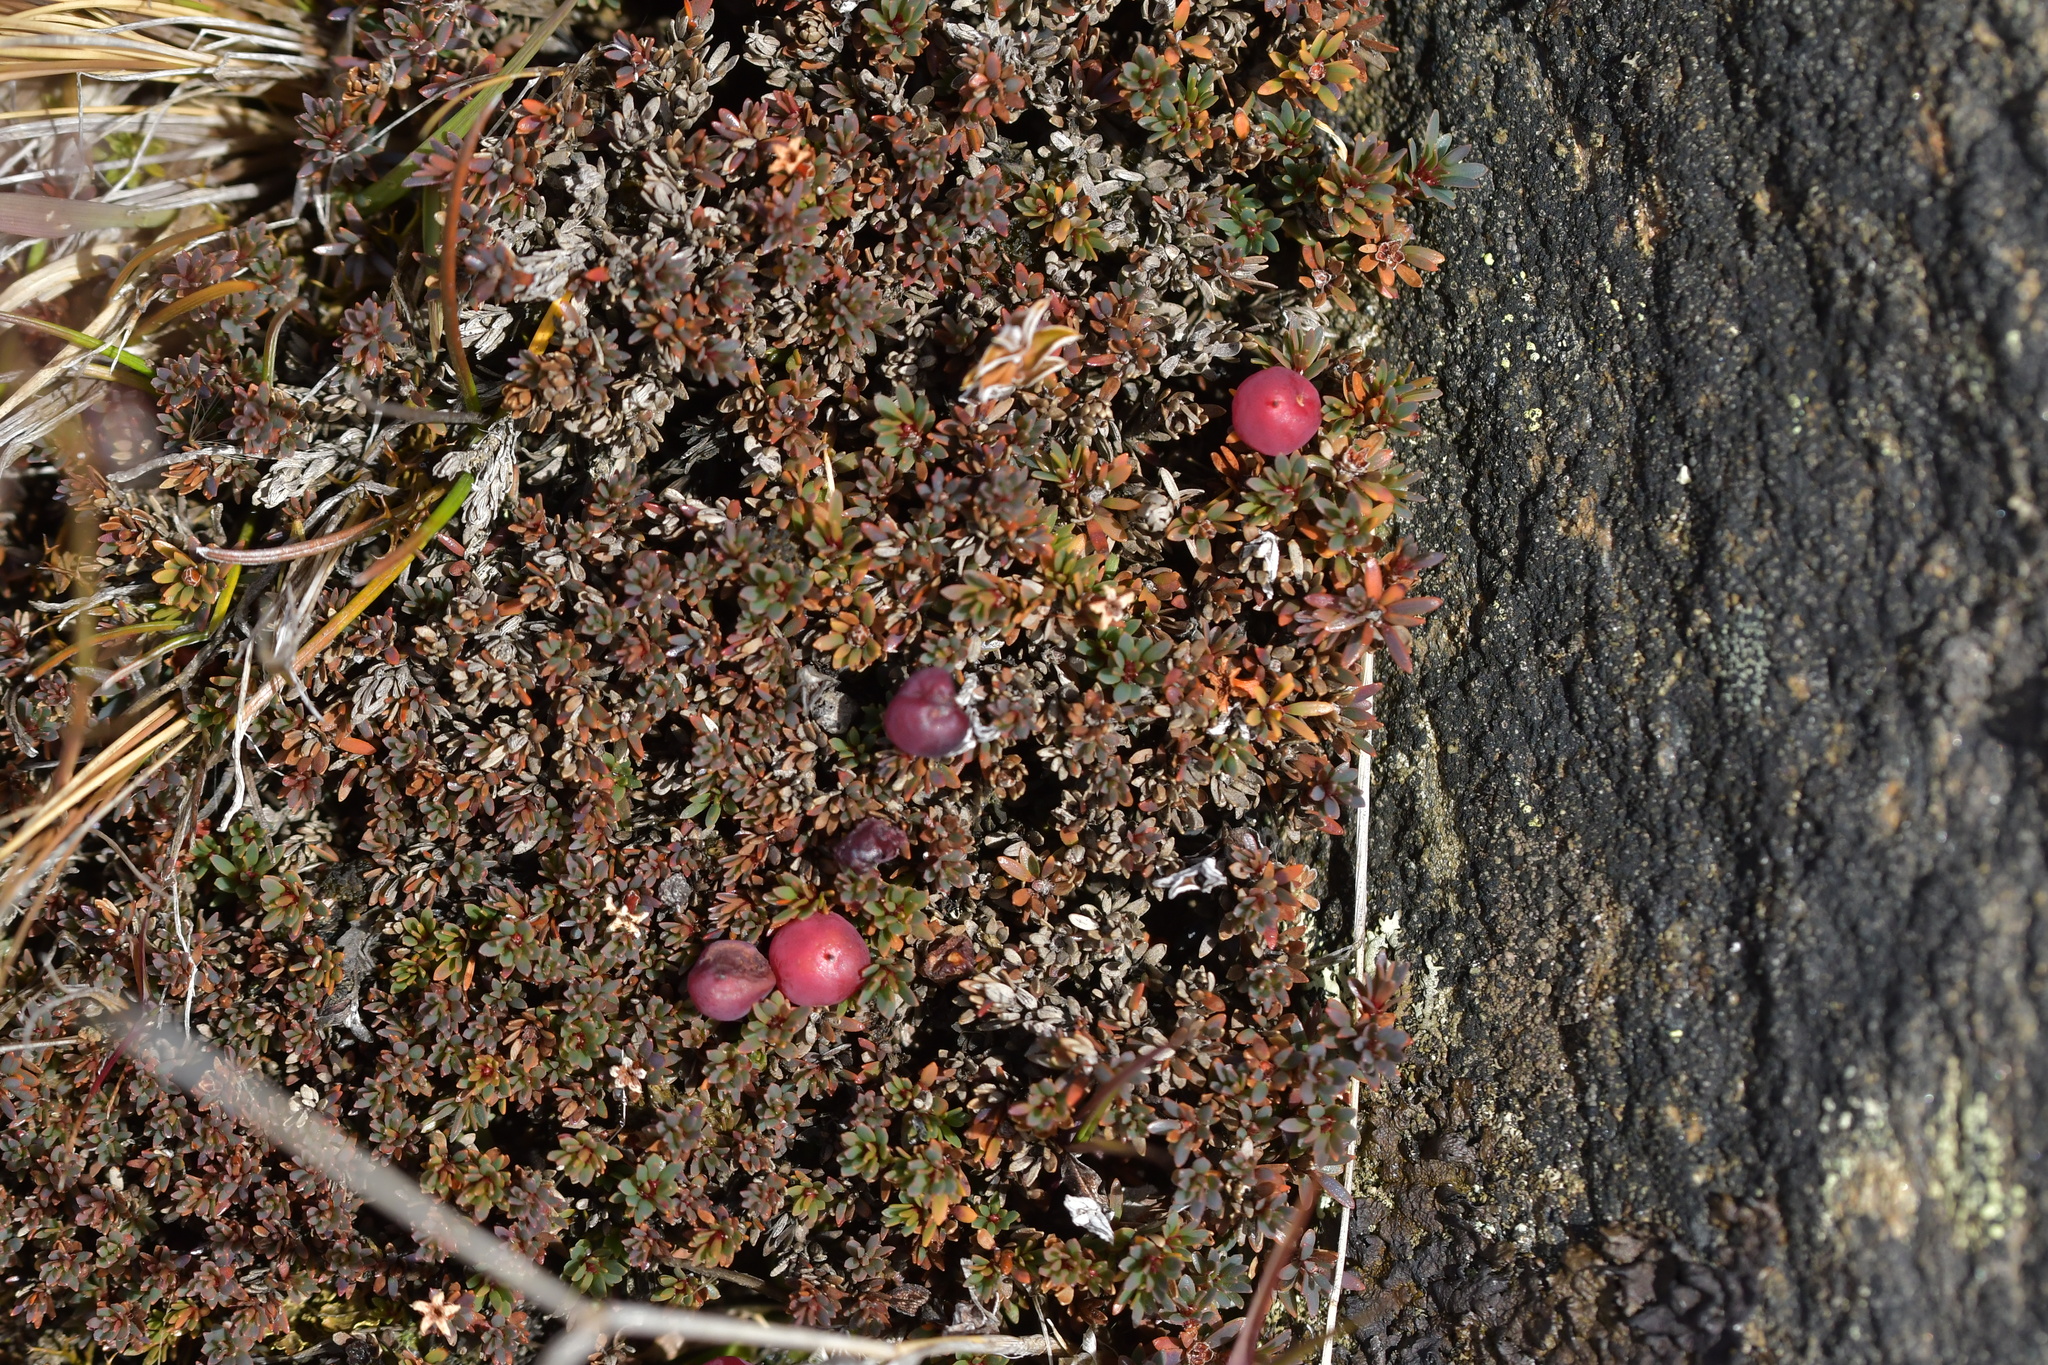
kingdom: Plantae
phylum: Tracheophyta
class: Magnoliopsida
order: Ericales
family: Ericaceae
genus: Pentachondra
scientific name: Pentachondra pumila
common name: Carpet-heath
